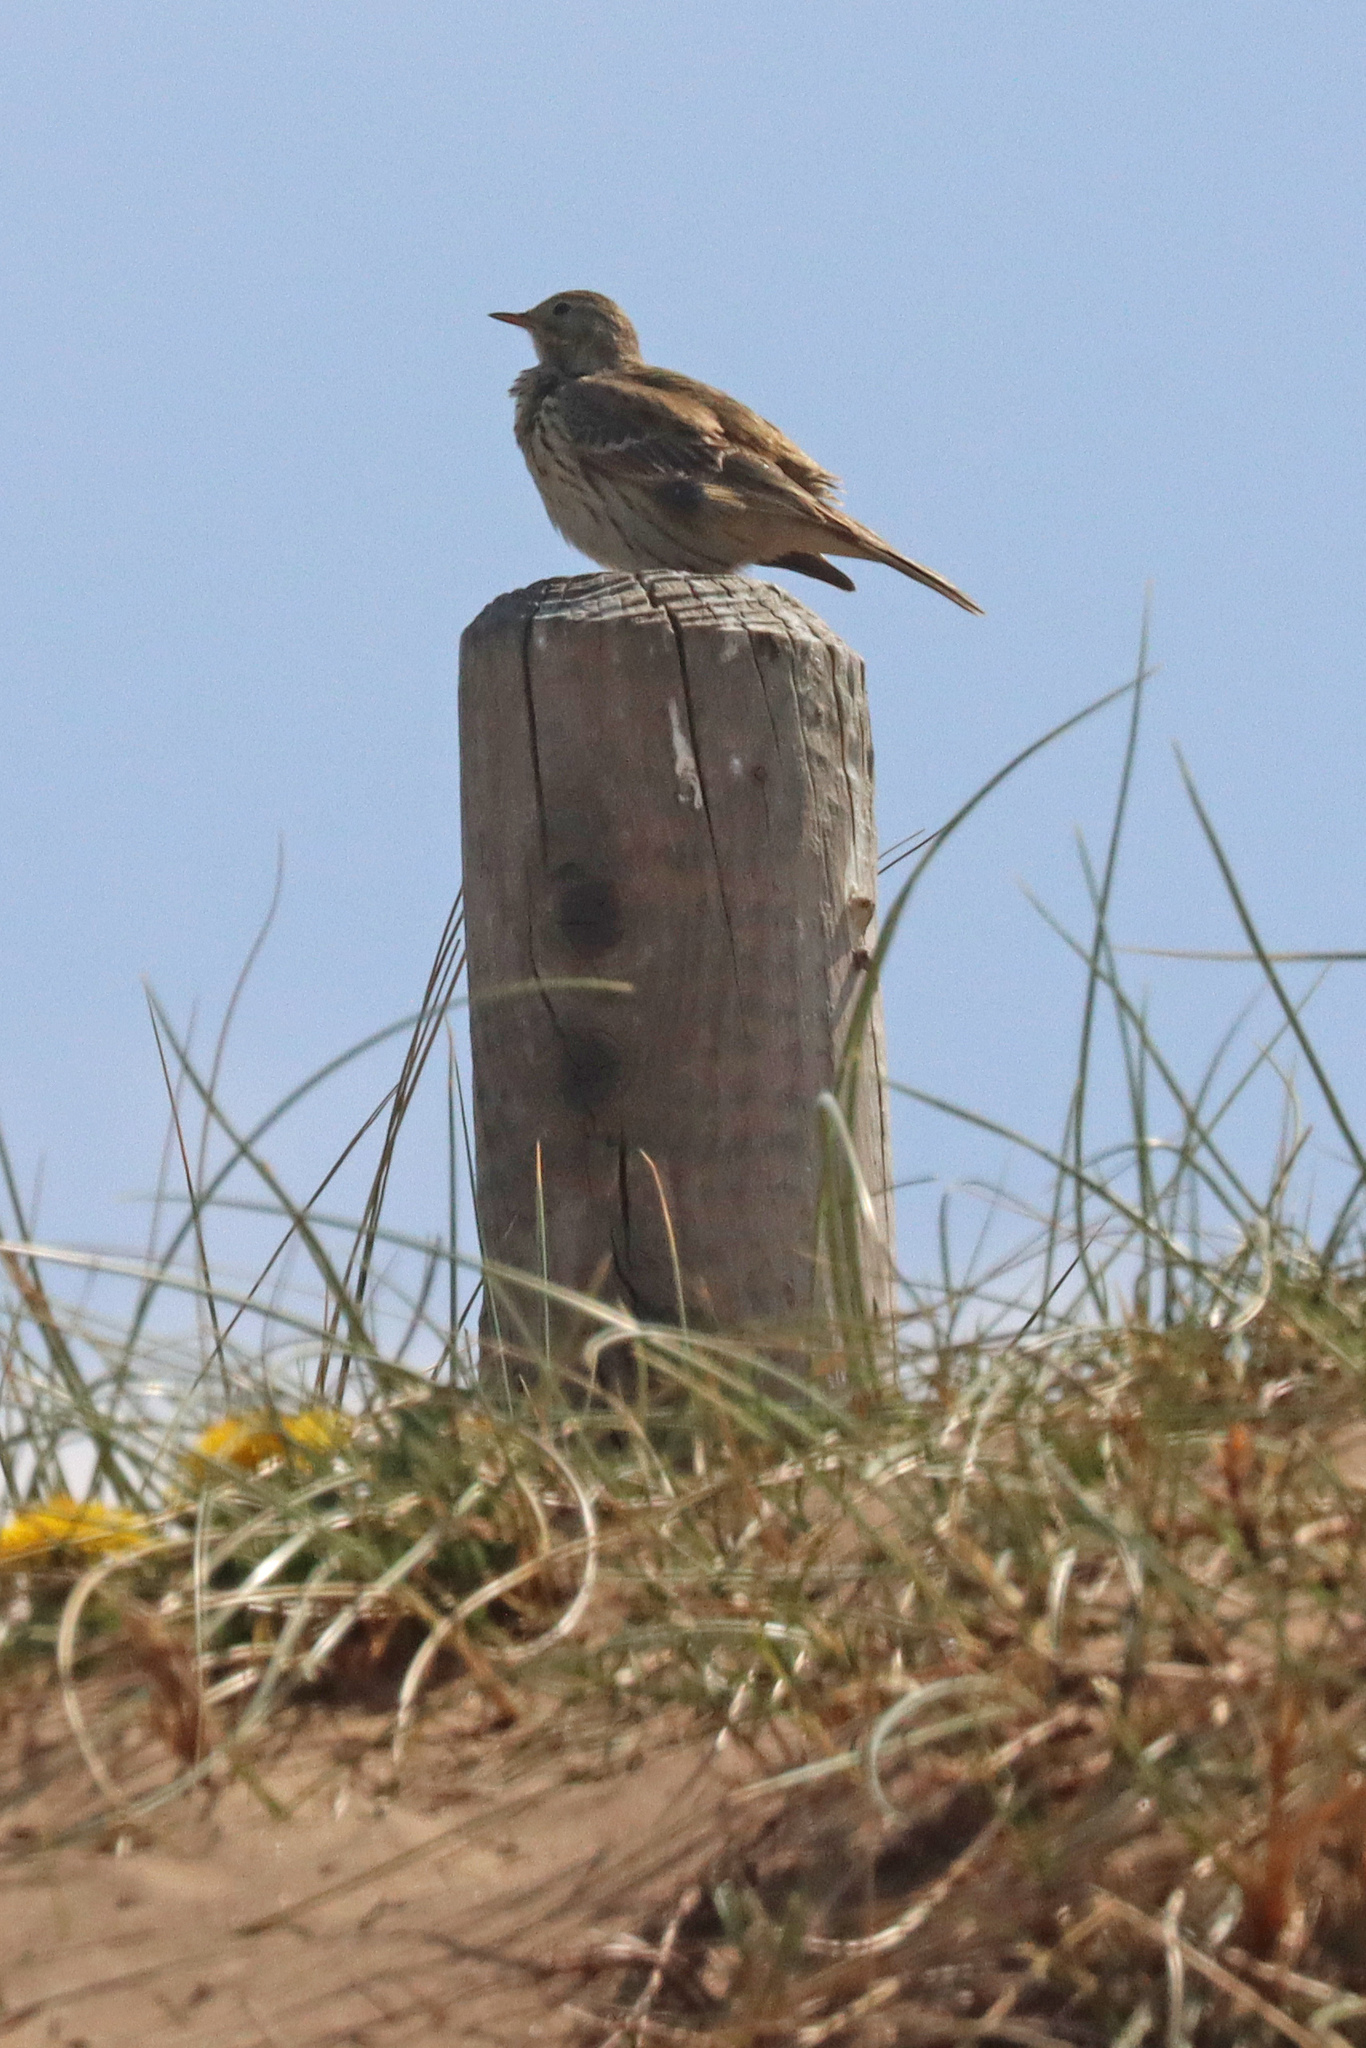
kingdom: Animalia
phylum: Chordata
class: Aves
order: Passeriformes
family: Motacillidae
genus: Anthus
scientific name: Anthus pratensis
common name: Meadow pipit
